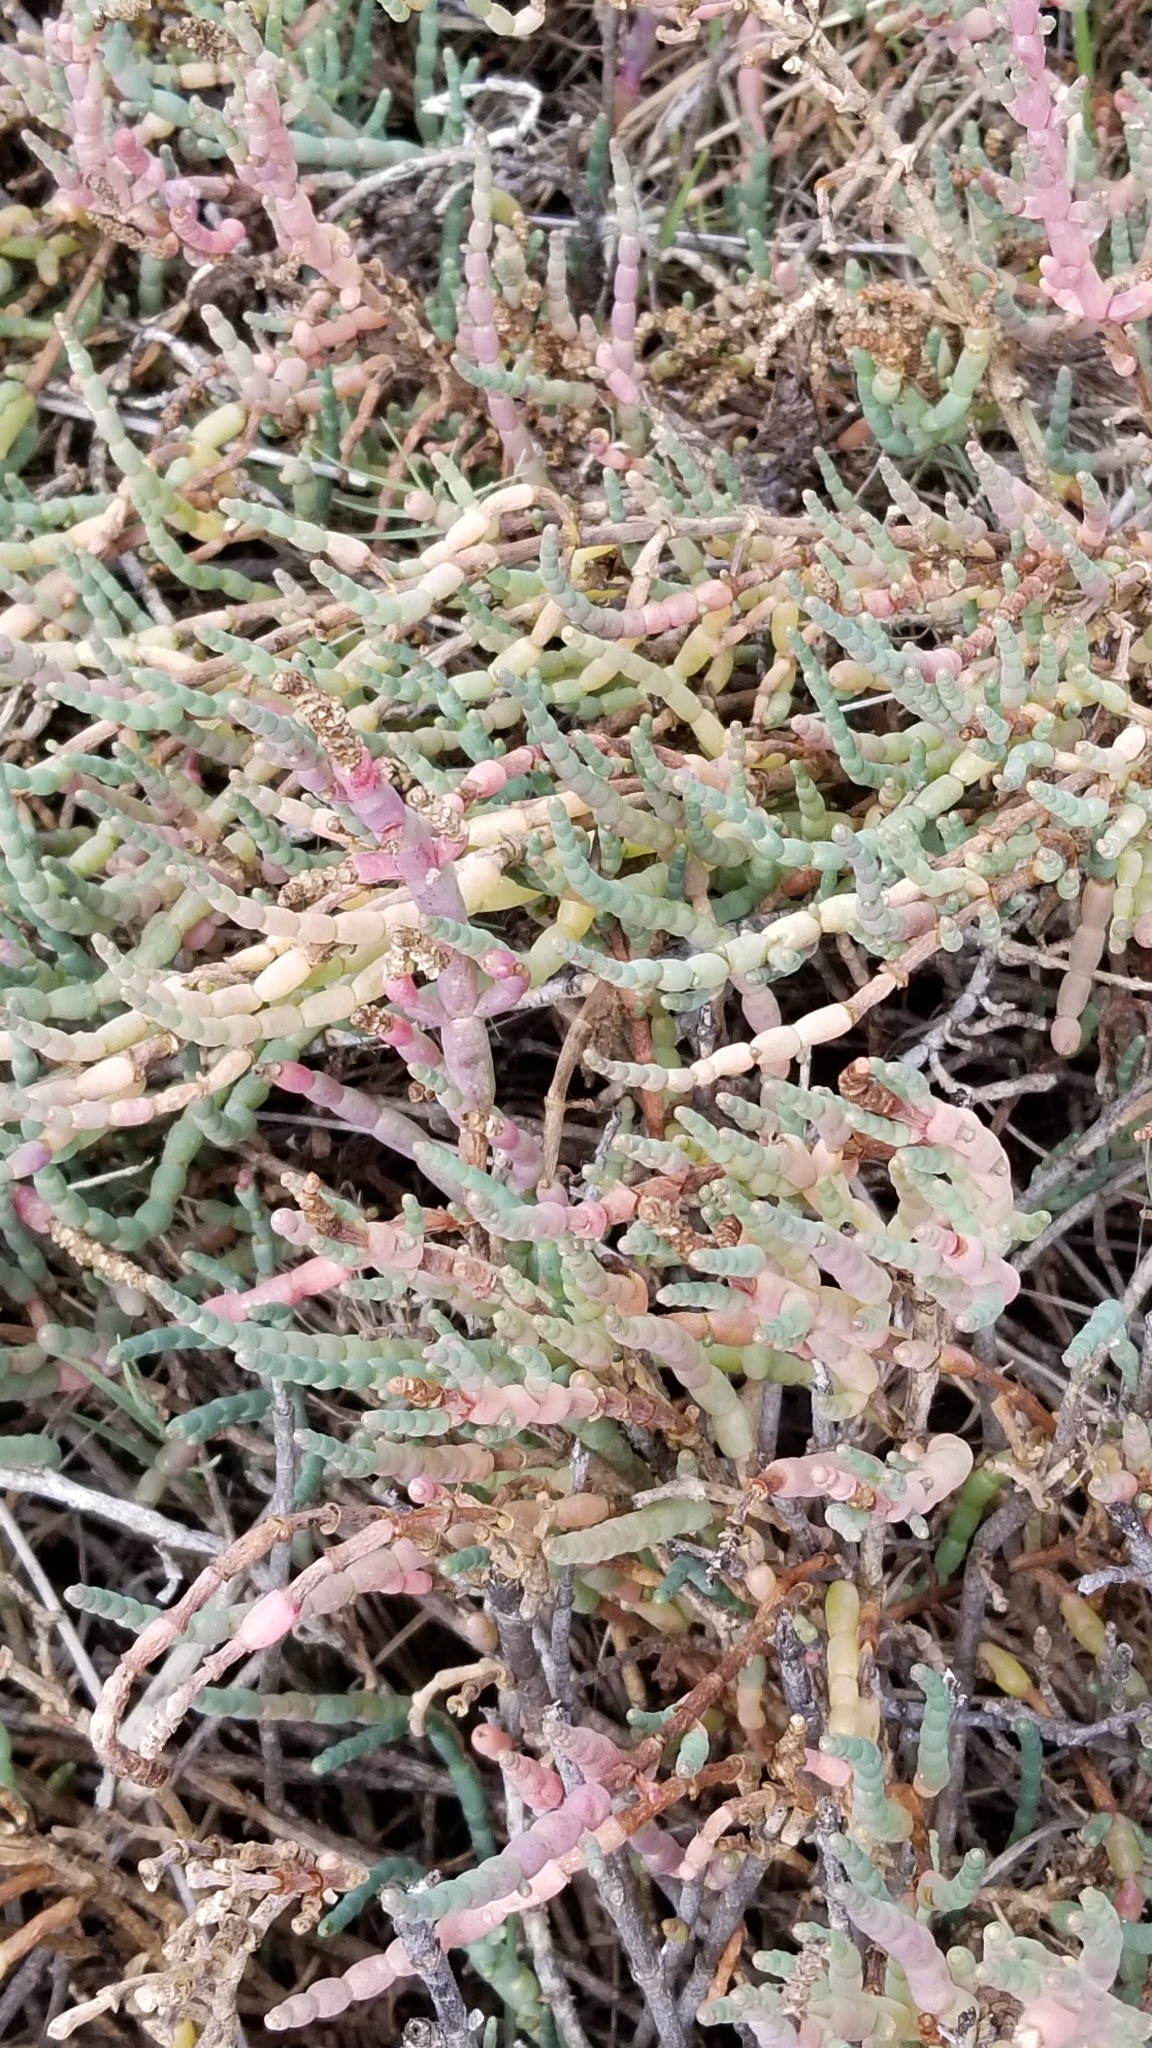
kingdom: Plantae
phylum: Tracheophyta
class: Magnoliopsida
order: Caryophyllales
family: Amaranthaceae
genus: Salicornia
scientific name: Salicornia pacifica
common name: Pacific glasswort
